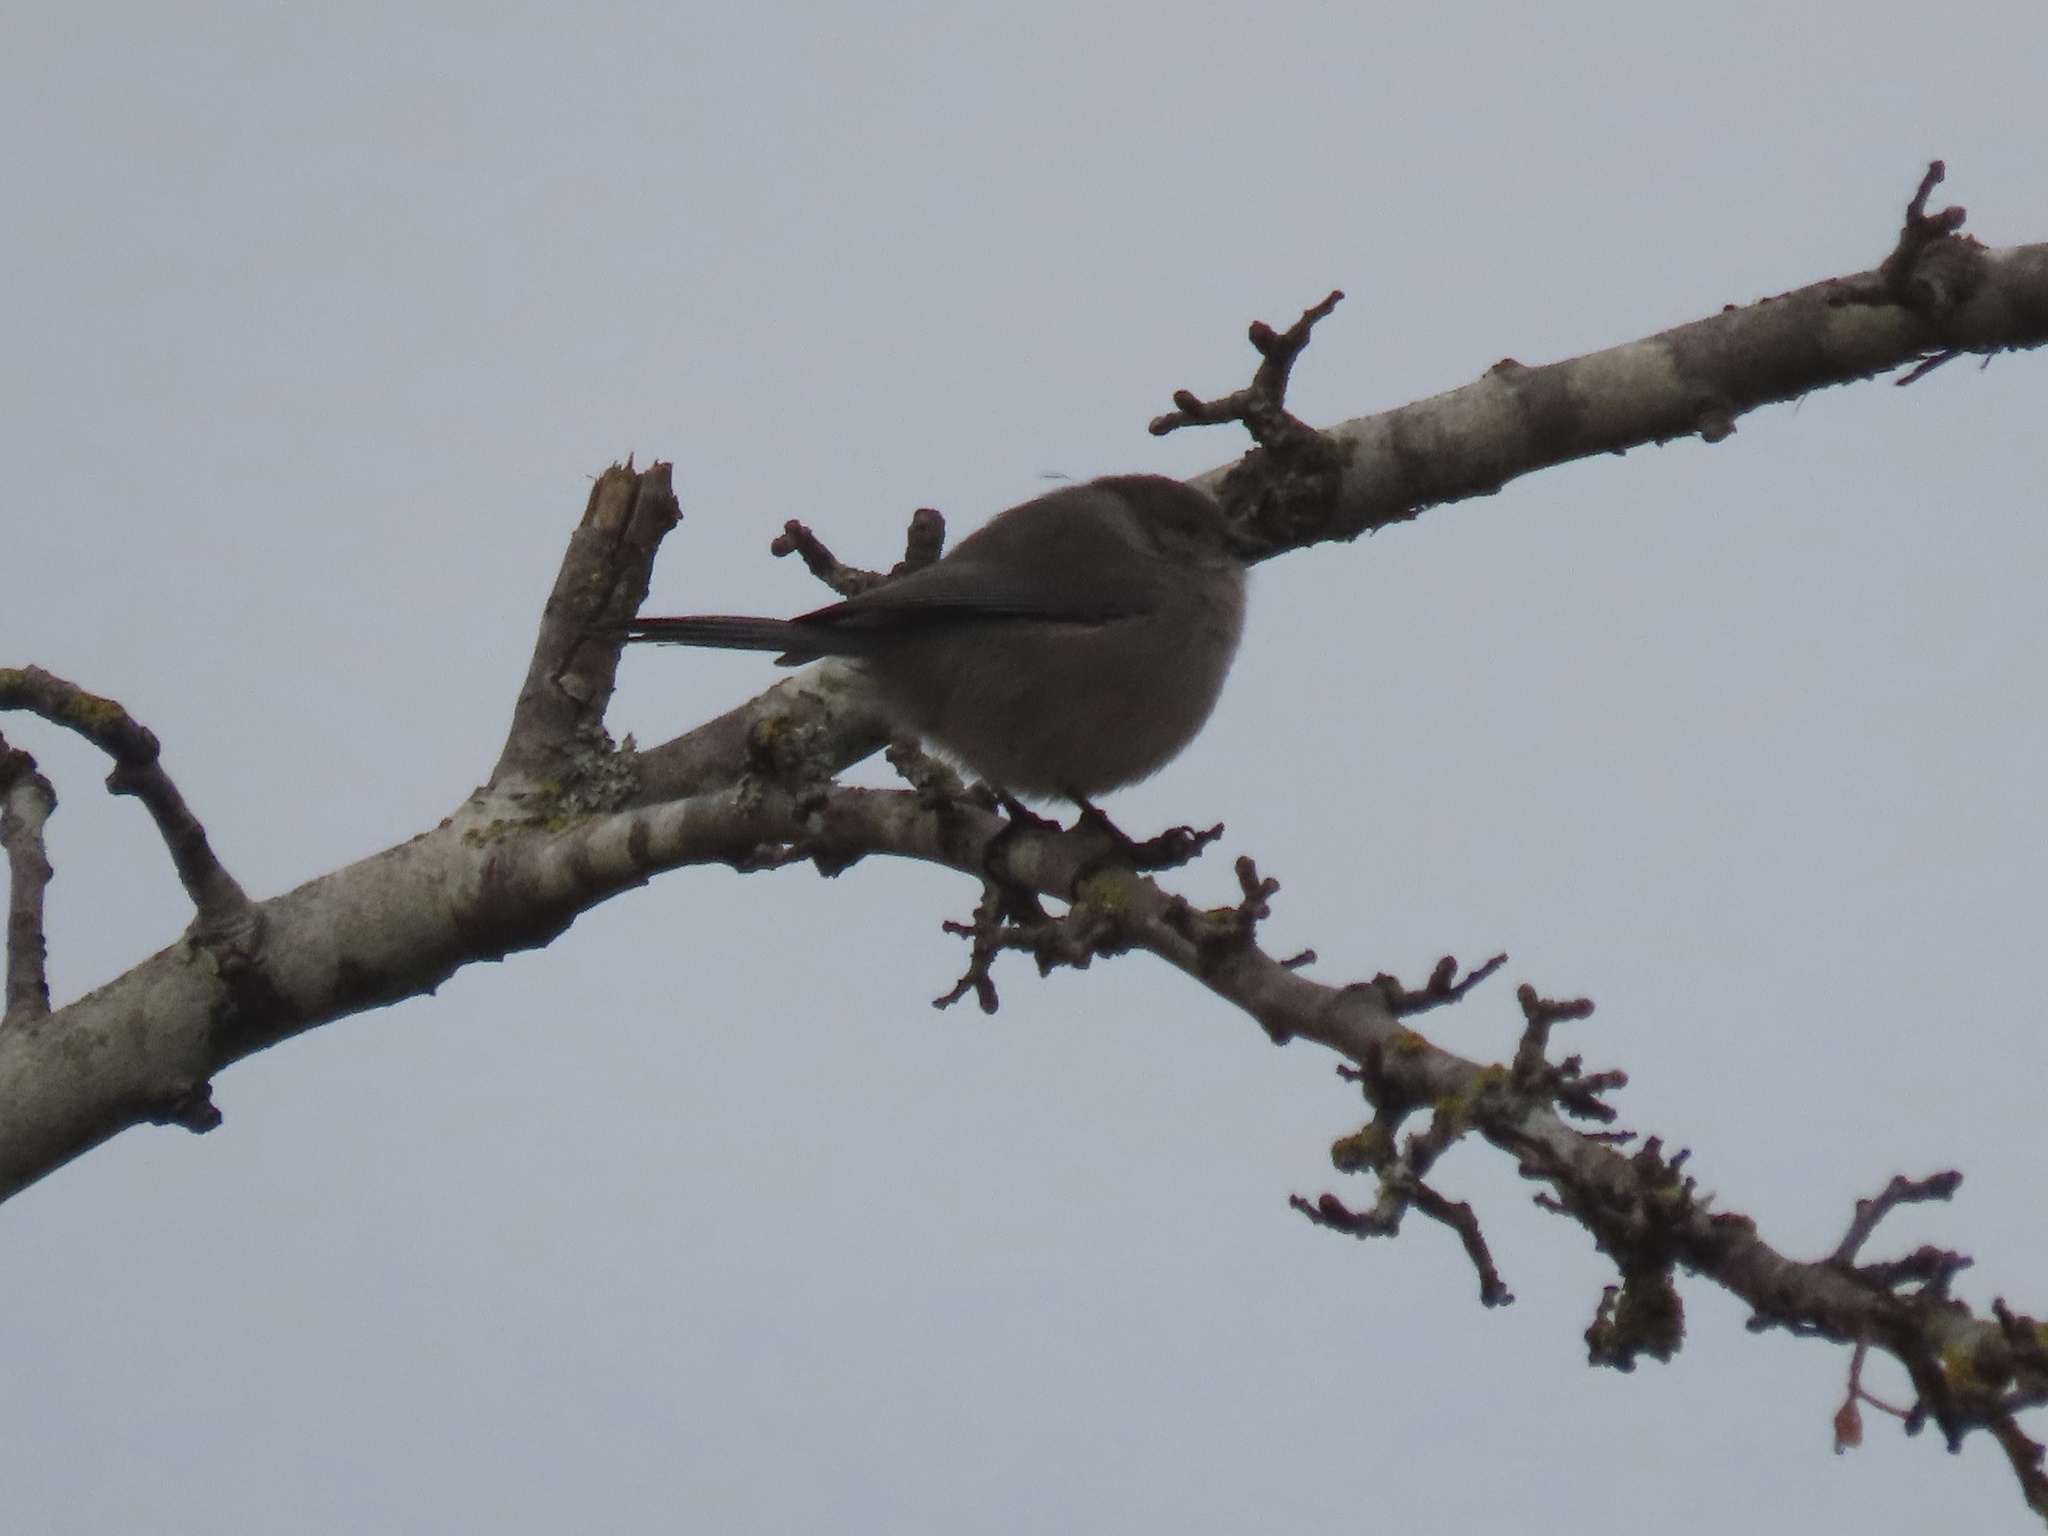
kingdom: Animalia
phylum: Chordata
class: Aves
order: Passeriformes
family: Aegithalidae
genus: Psaltriparus
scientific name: Psaltriparus minimus
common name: American bushtit
